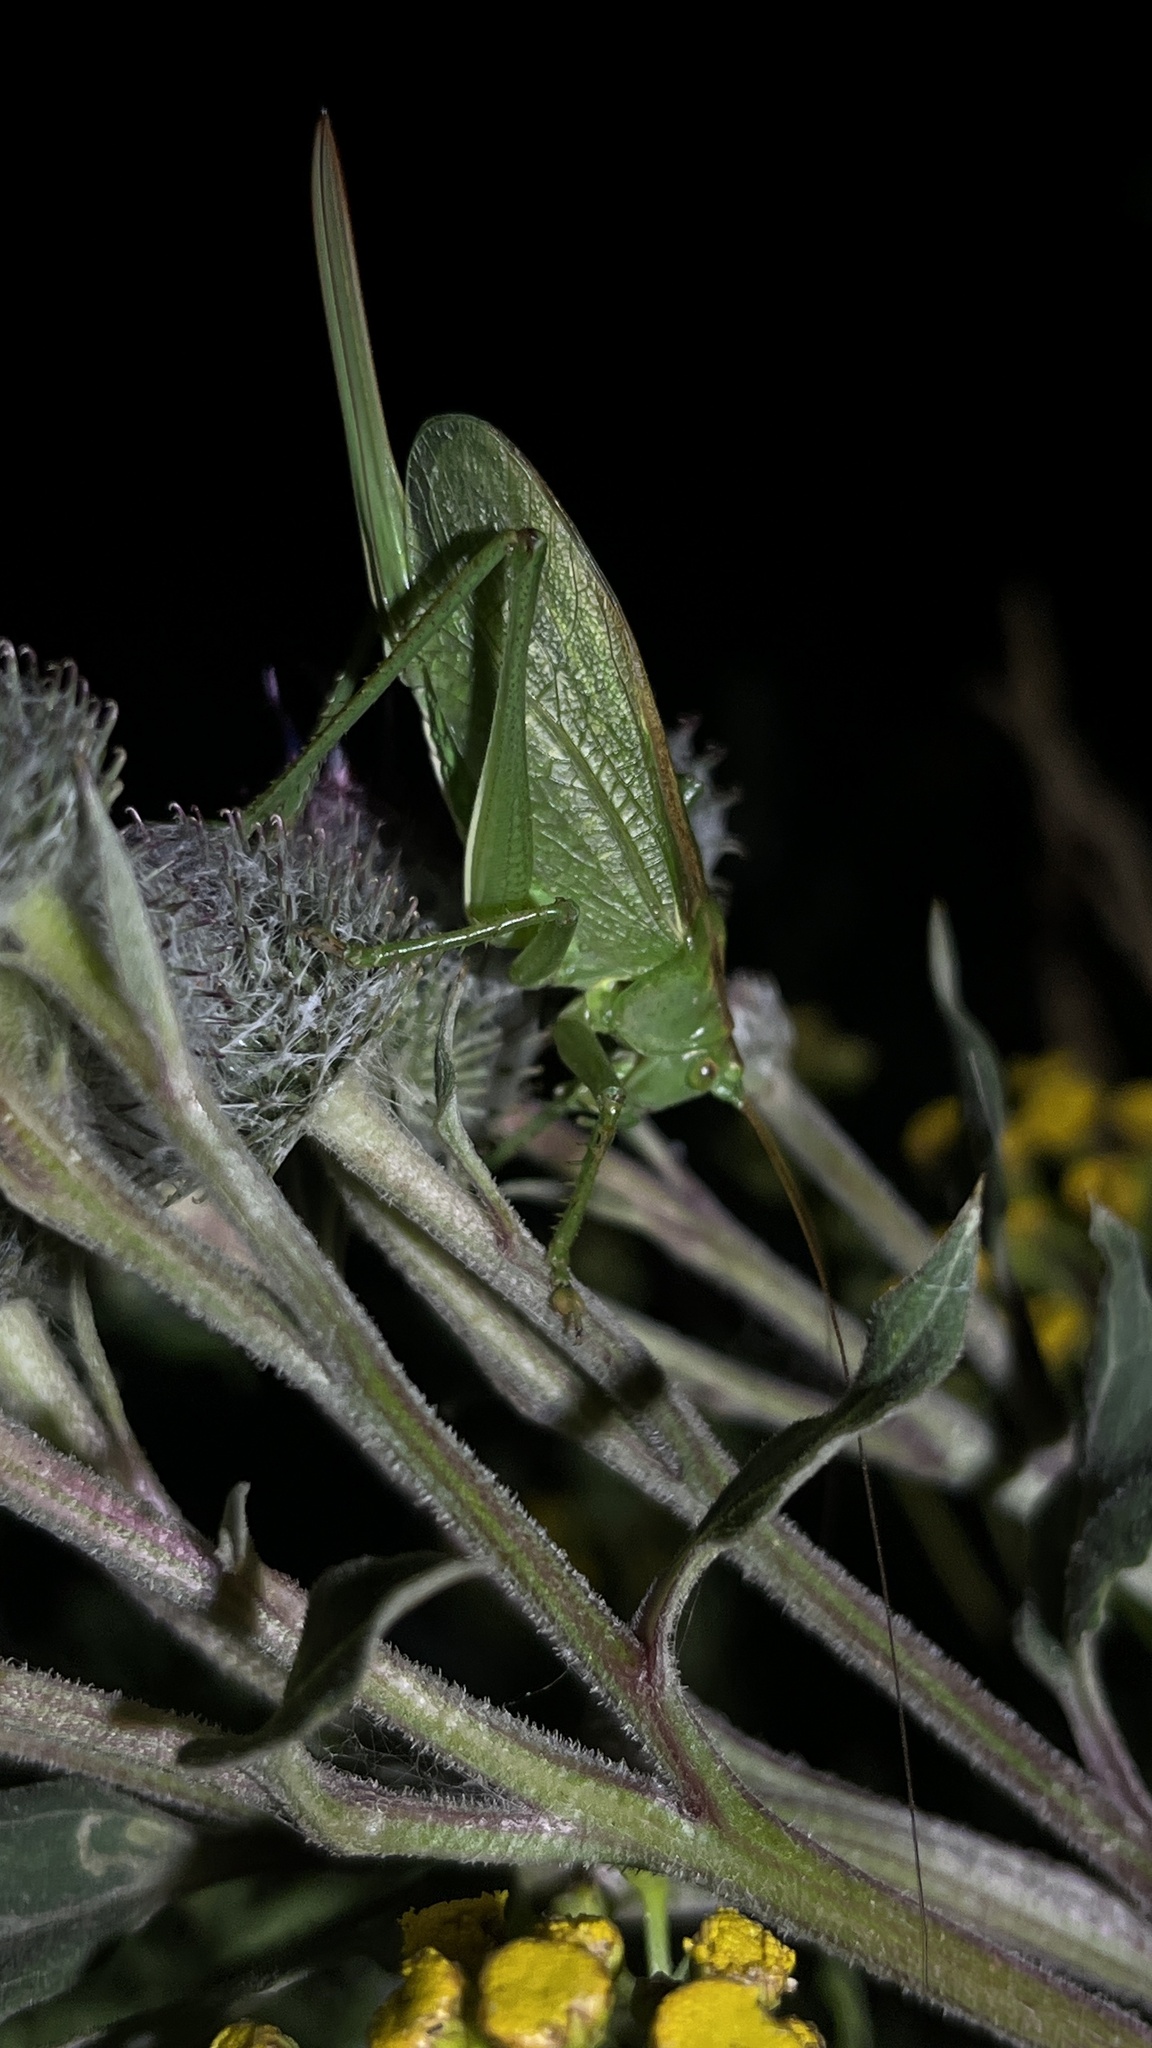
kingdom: Animalia
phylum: Arthropoda
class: Insecta
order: Orthoptera
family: Tettigoniidae
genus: Tettigonia
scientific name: Tettigonia cantans
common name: Upland green bush-cricket
